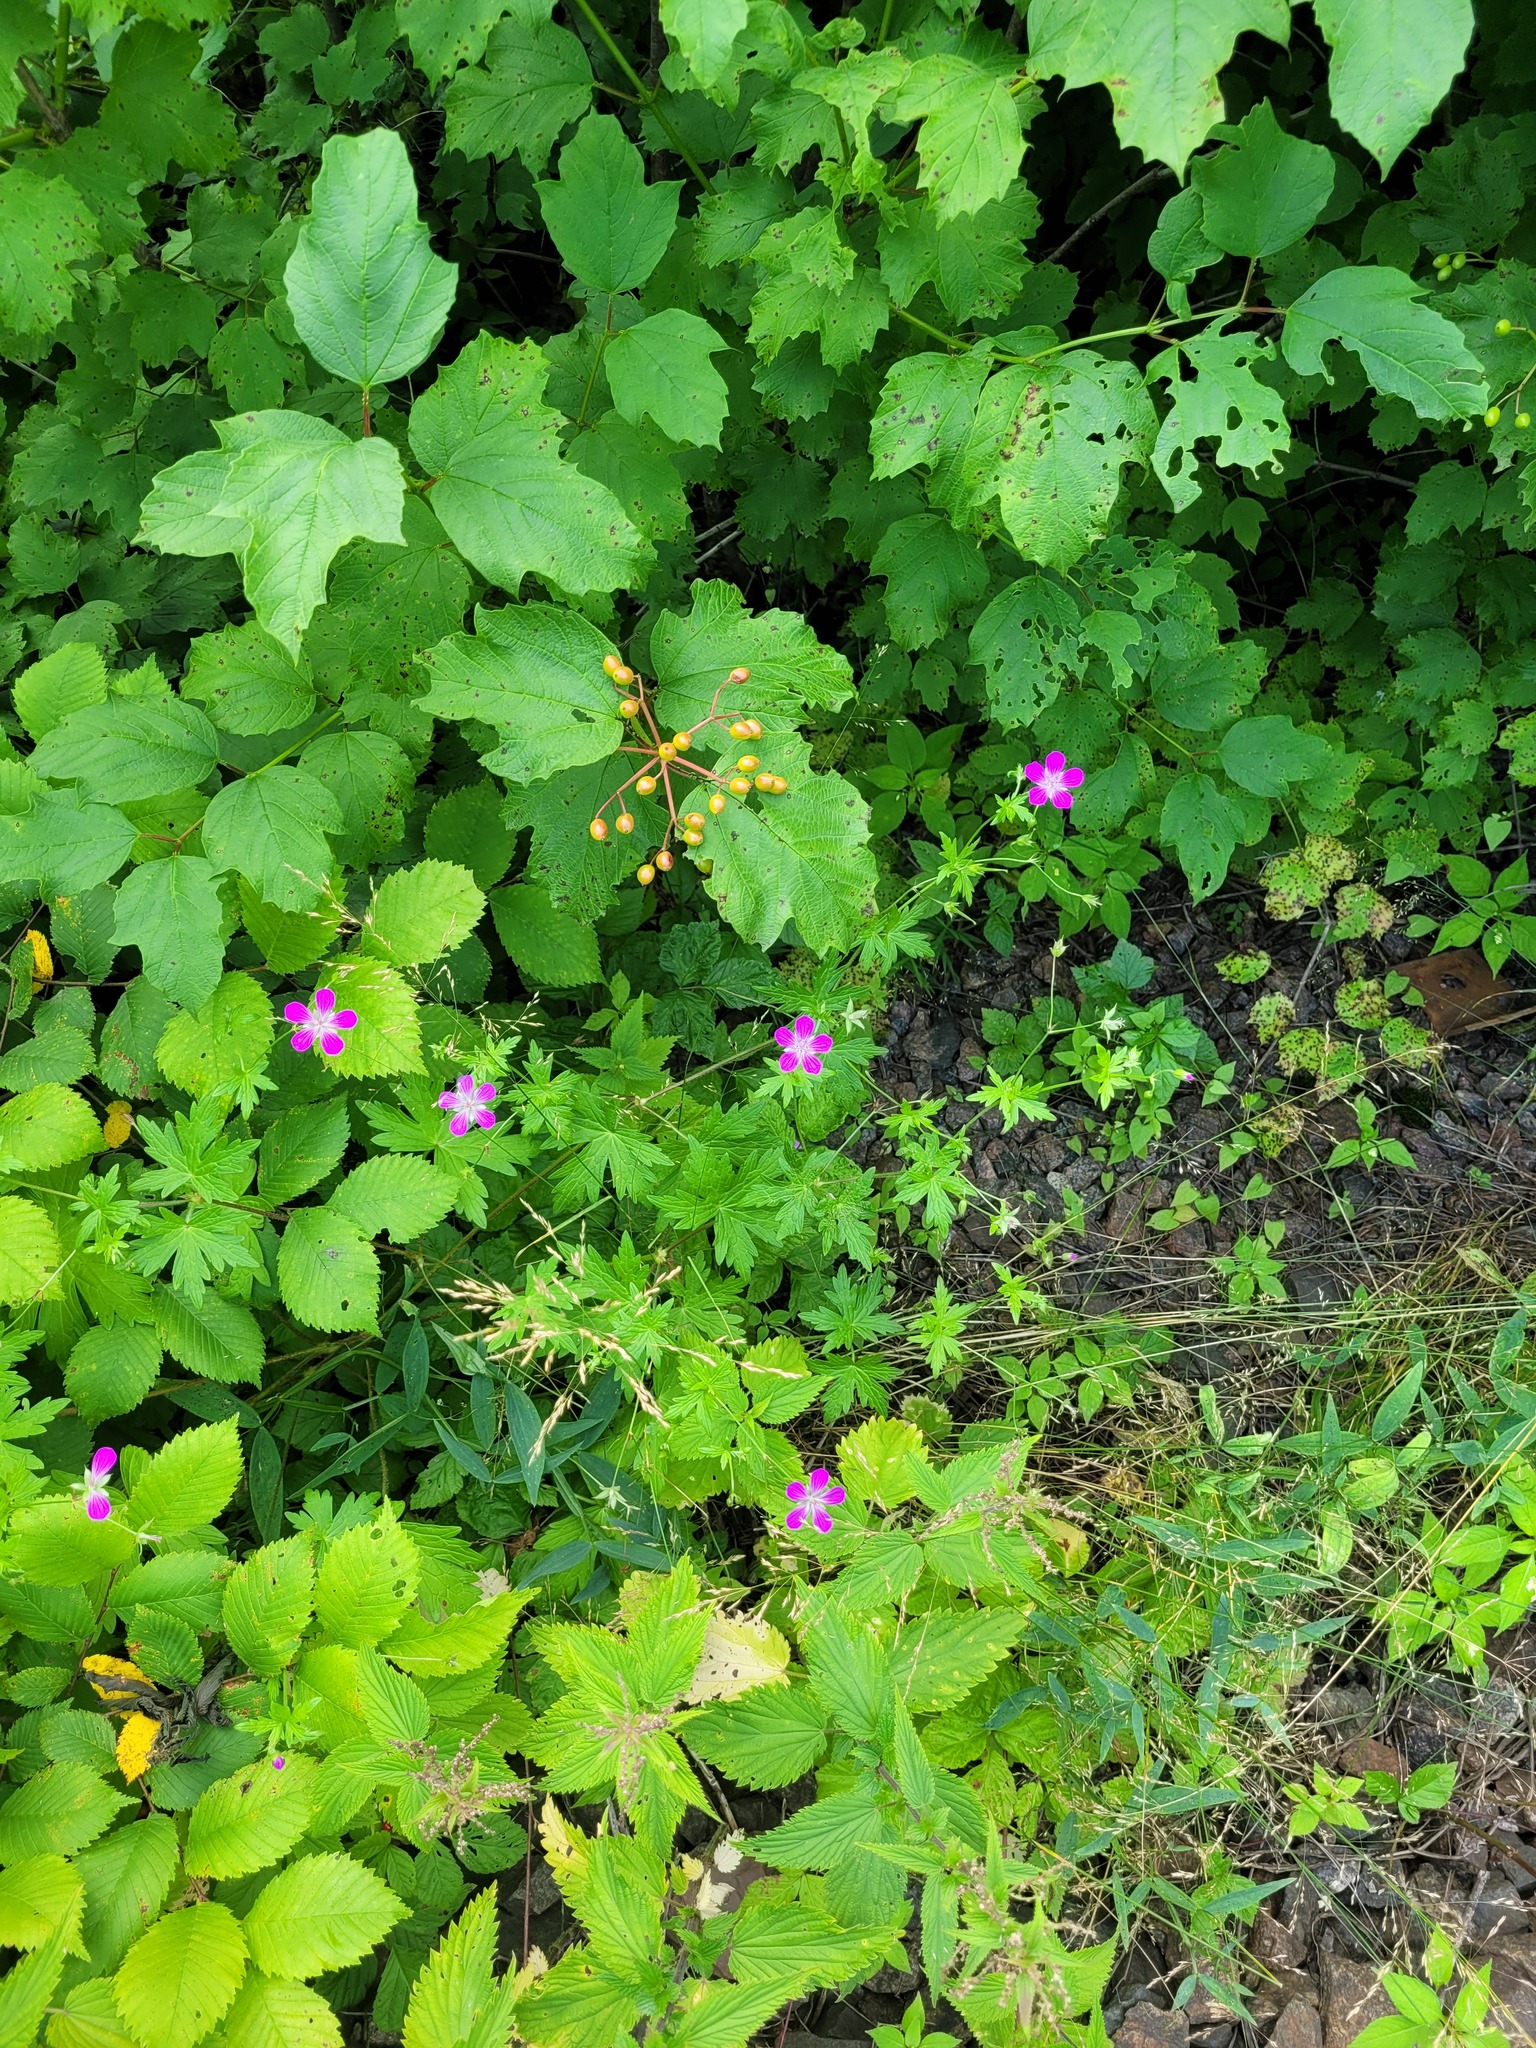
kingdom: Plantae
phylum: Tracheophyta
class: Magnoliopsida
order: Geraniales
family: Geraniaceae
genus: Geranium
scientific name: Geranium palustre
